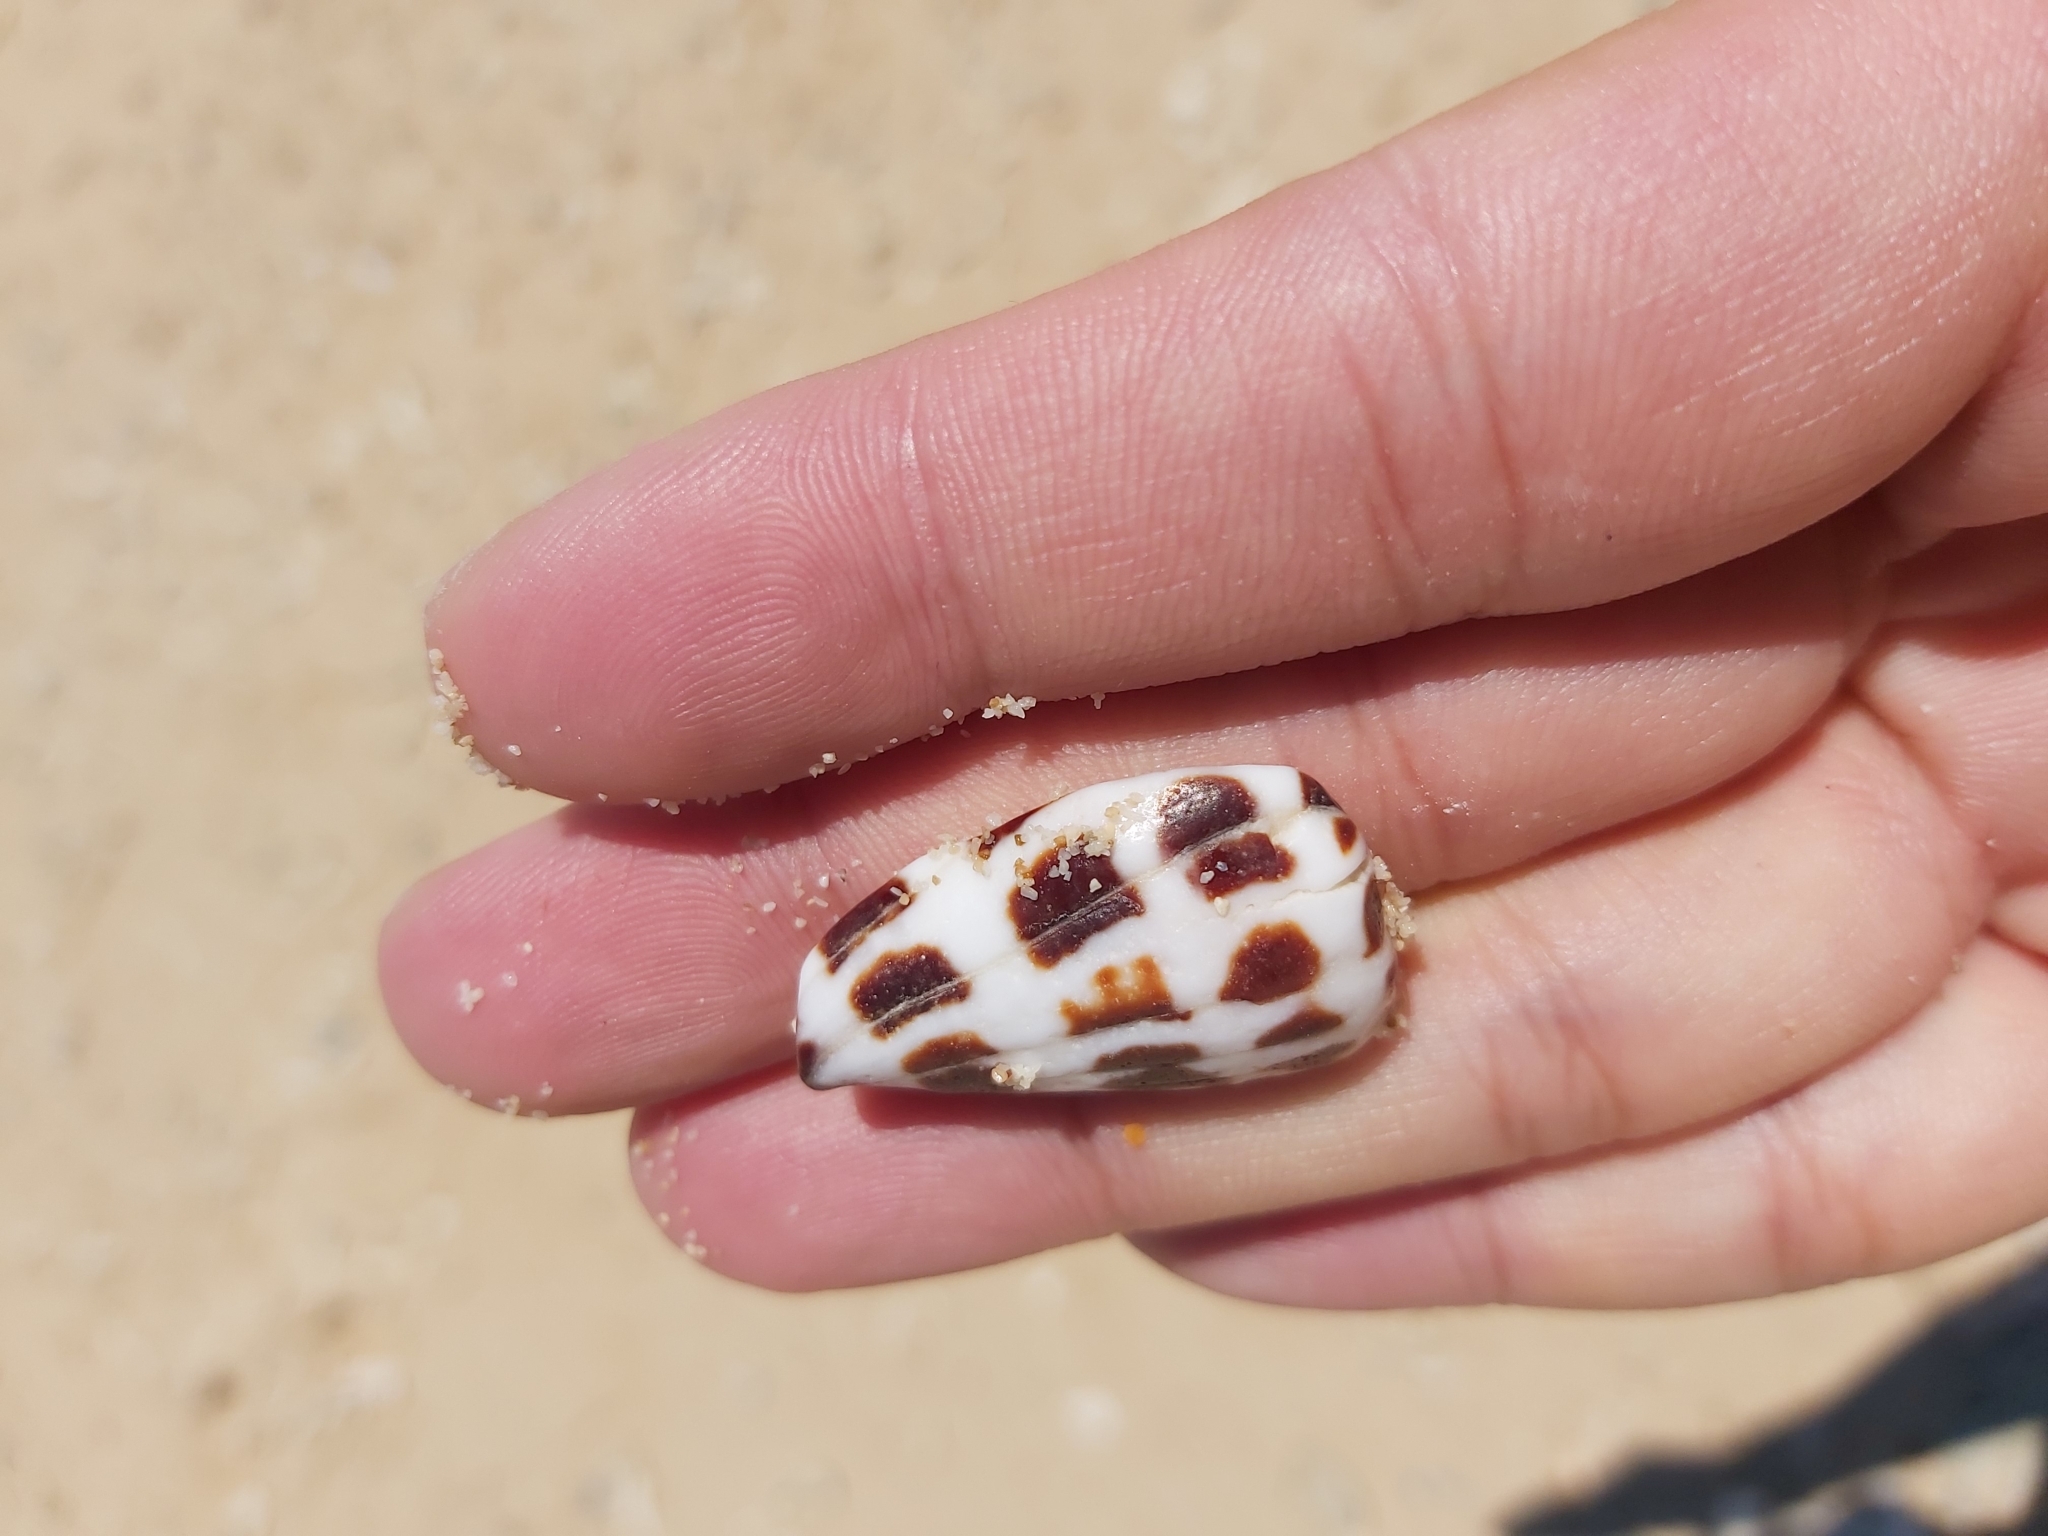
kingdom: Animalia
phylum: Mollusca
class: Gastropoda
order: Neogastropoda
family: Conidae
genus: Conus
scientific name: Conus ebraeus
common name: Hebrew cone
